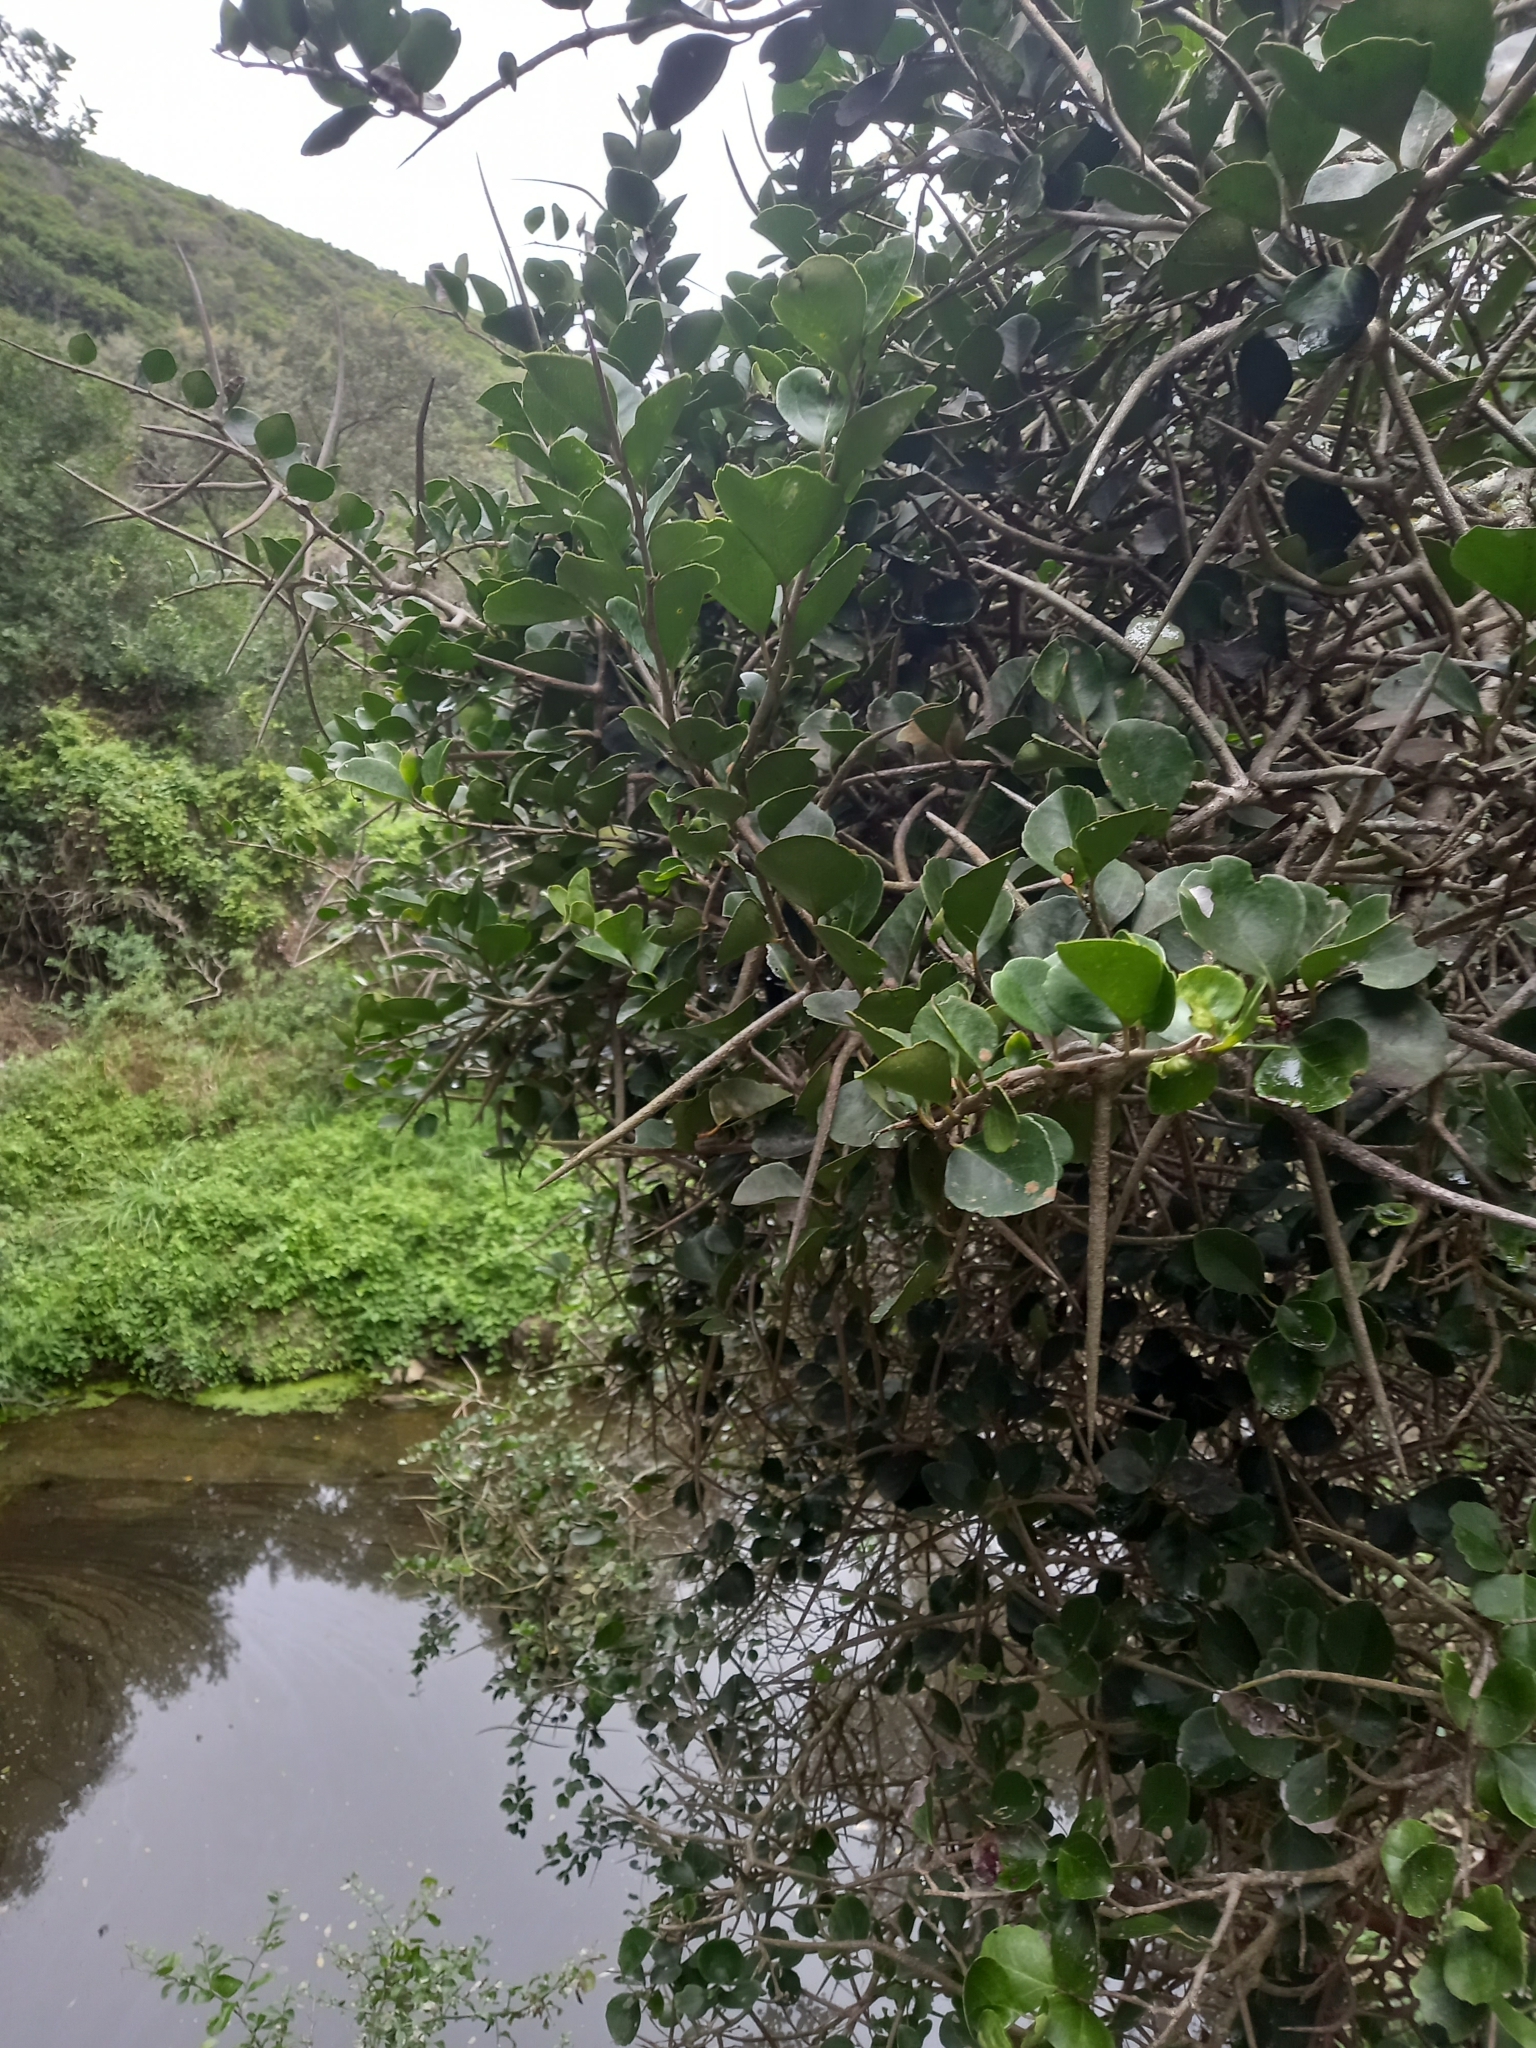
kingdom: Plantae
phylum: Tracheophyta
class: Magnoliopsida
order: Malpighiales
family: Salicaceae
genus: Scolopia
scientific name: Scolopia zeyheri
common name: Thorn pear
